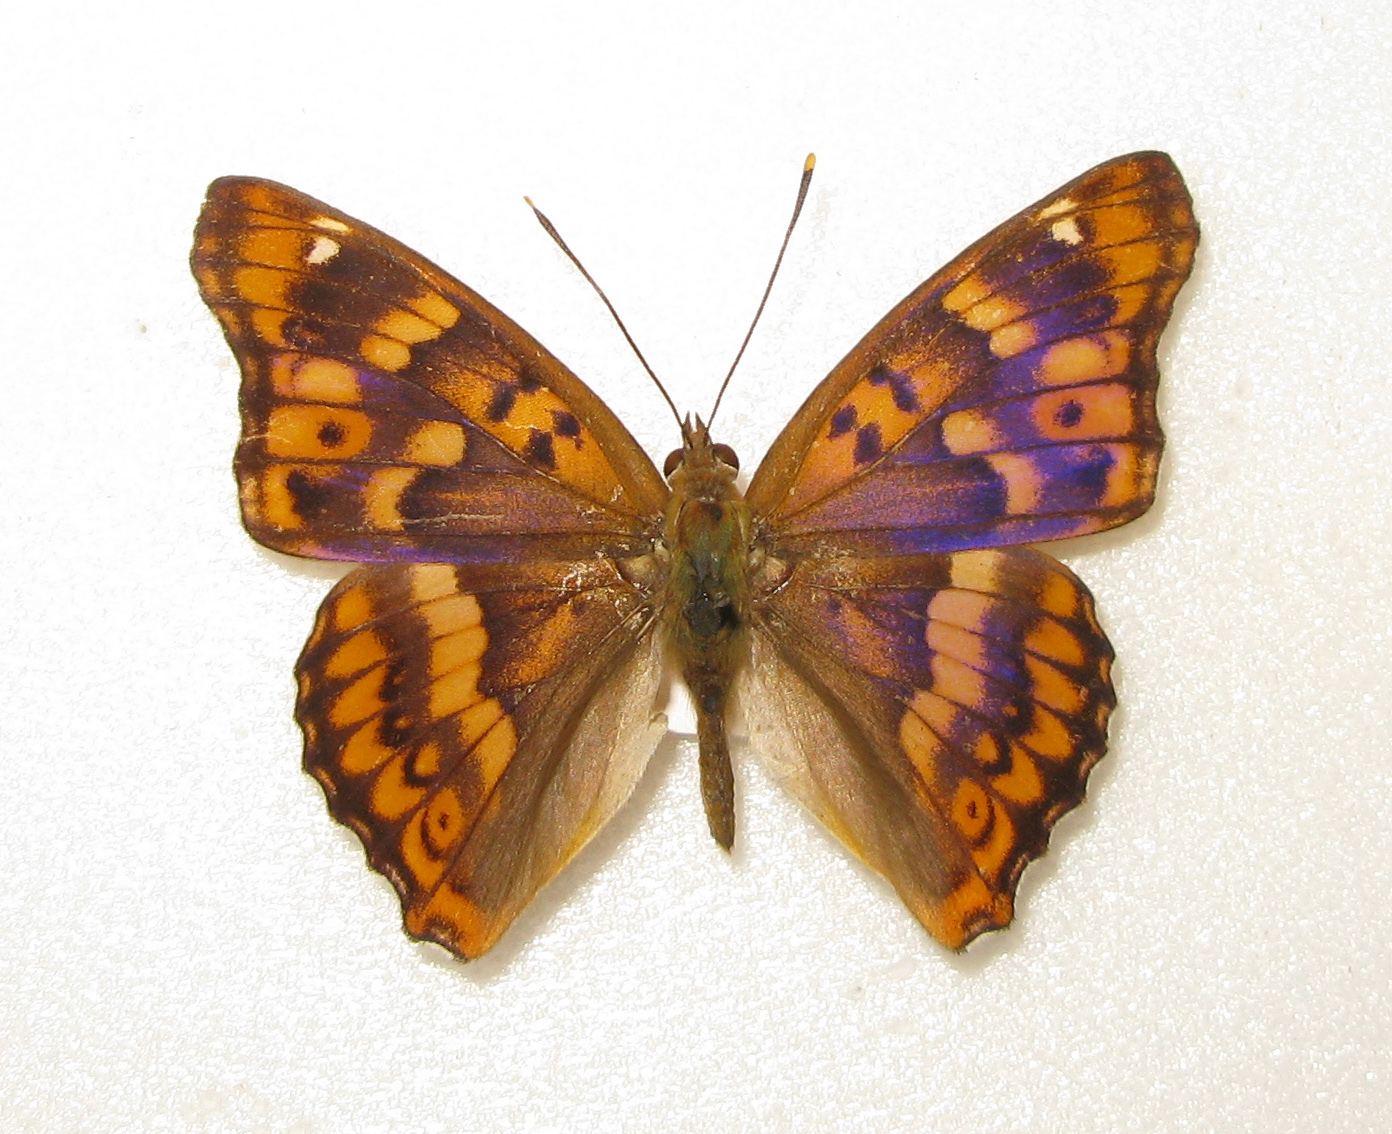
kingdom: Animalia
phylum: Arthropoda
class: Insecta
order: Lepidoptera
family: Nymphalidae
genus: Apatura
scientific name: Apatura ilia
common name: Lesser purple emperor
